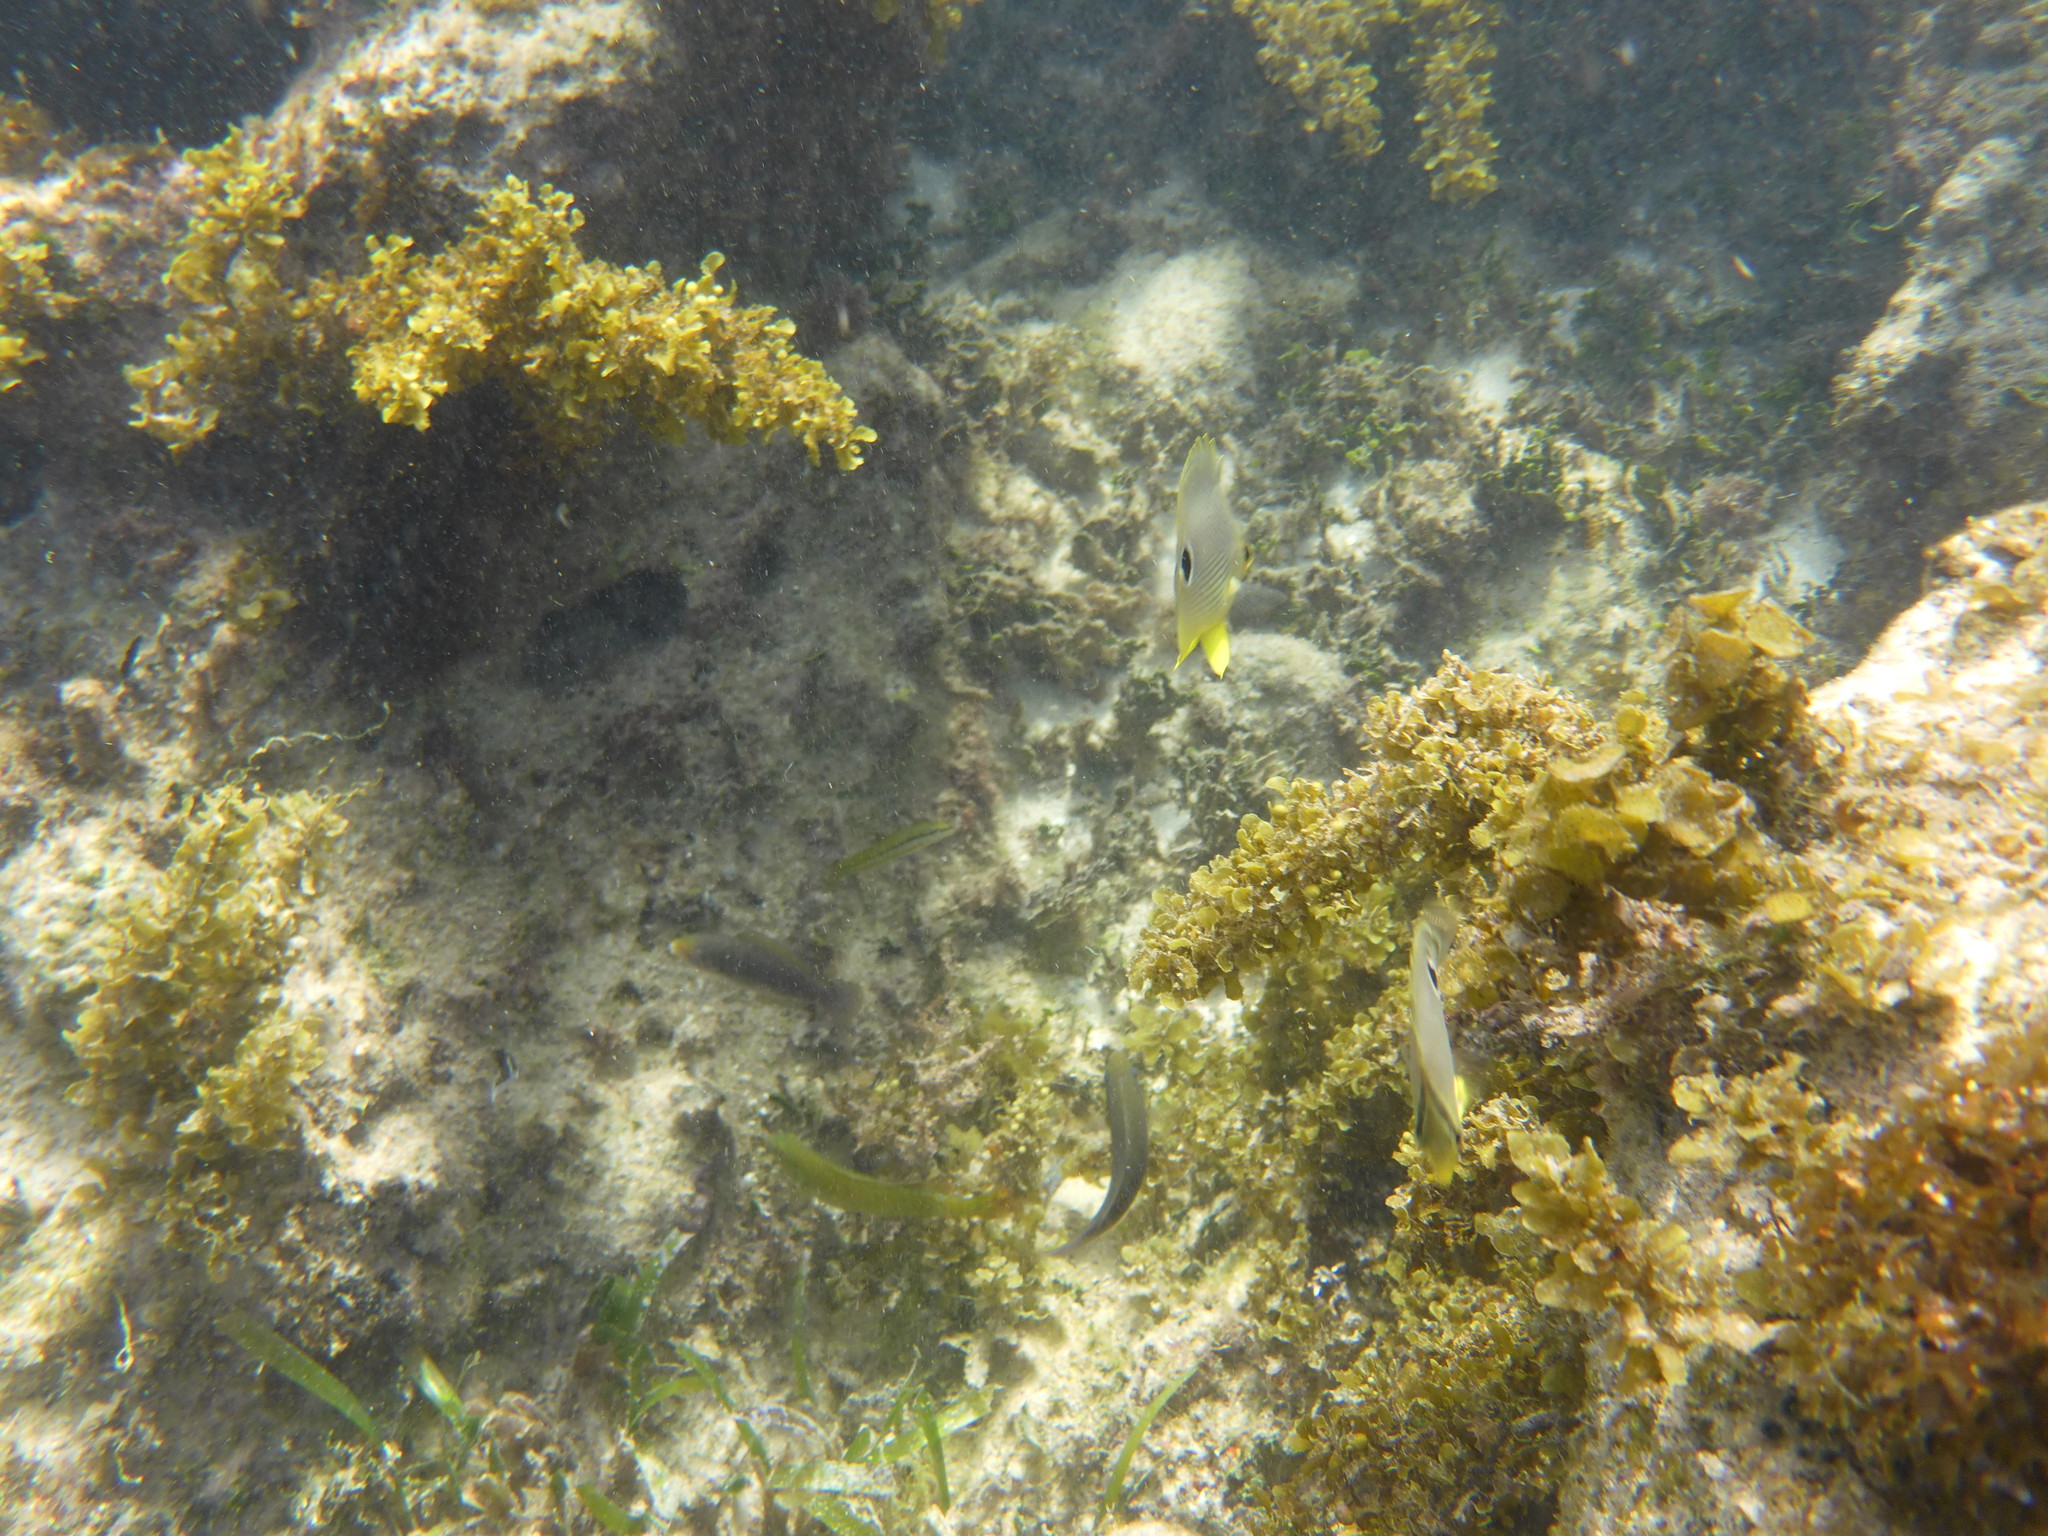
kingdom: Animalia
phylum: Chordata
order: Perciformes
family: Chaetodontidae
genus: Chaetodon
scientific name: Chaetodon capistratus
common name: Kete
